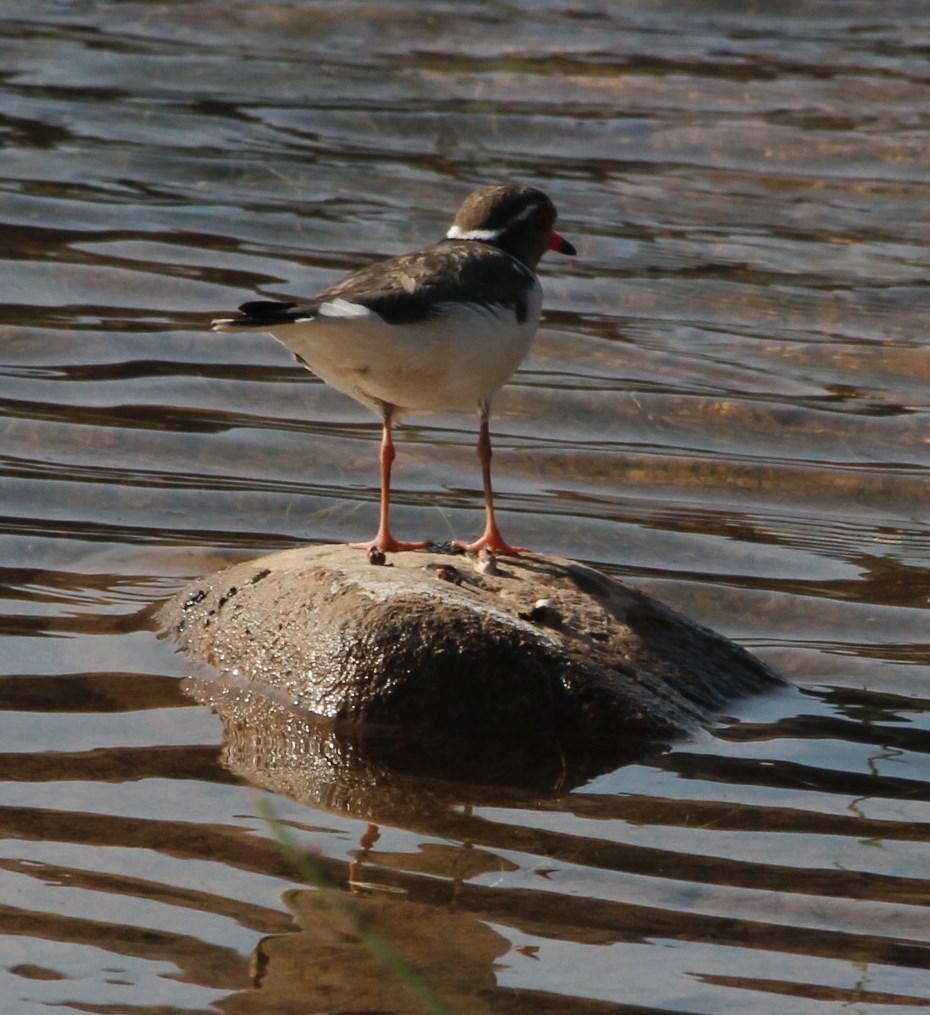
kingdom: Animalia
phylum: Chordata
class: Aves
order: Charadriiformes
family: Charadriidae
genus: Charadrius
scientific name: Charadrius tricollaris
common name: Three-banded plover
